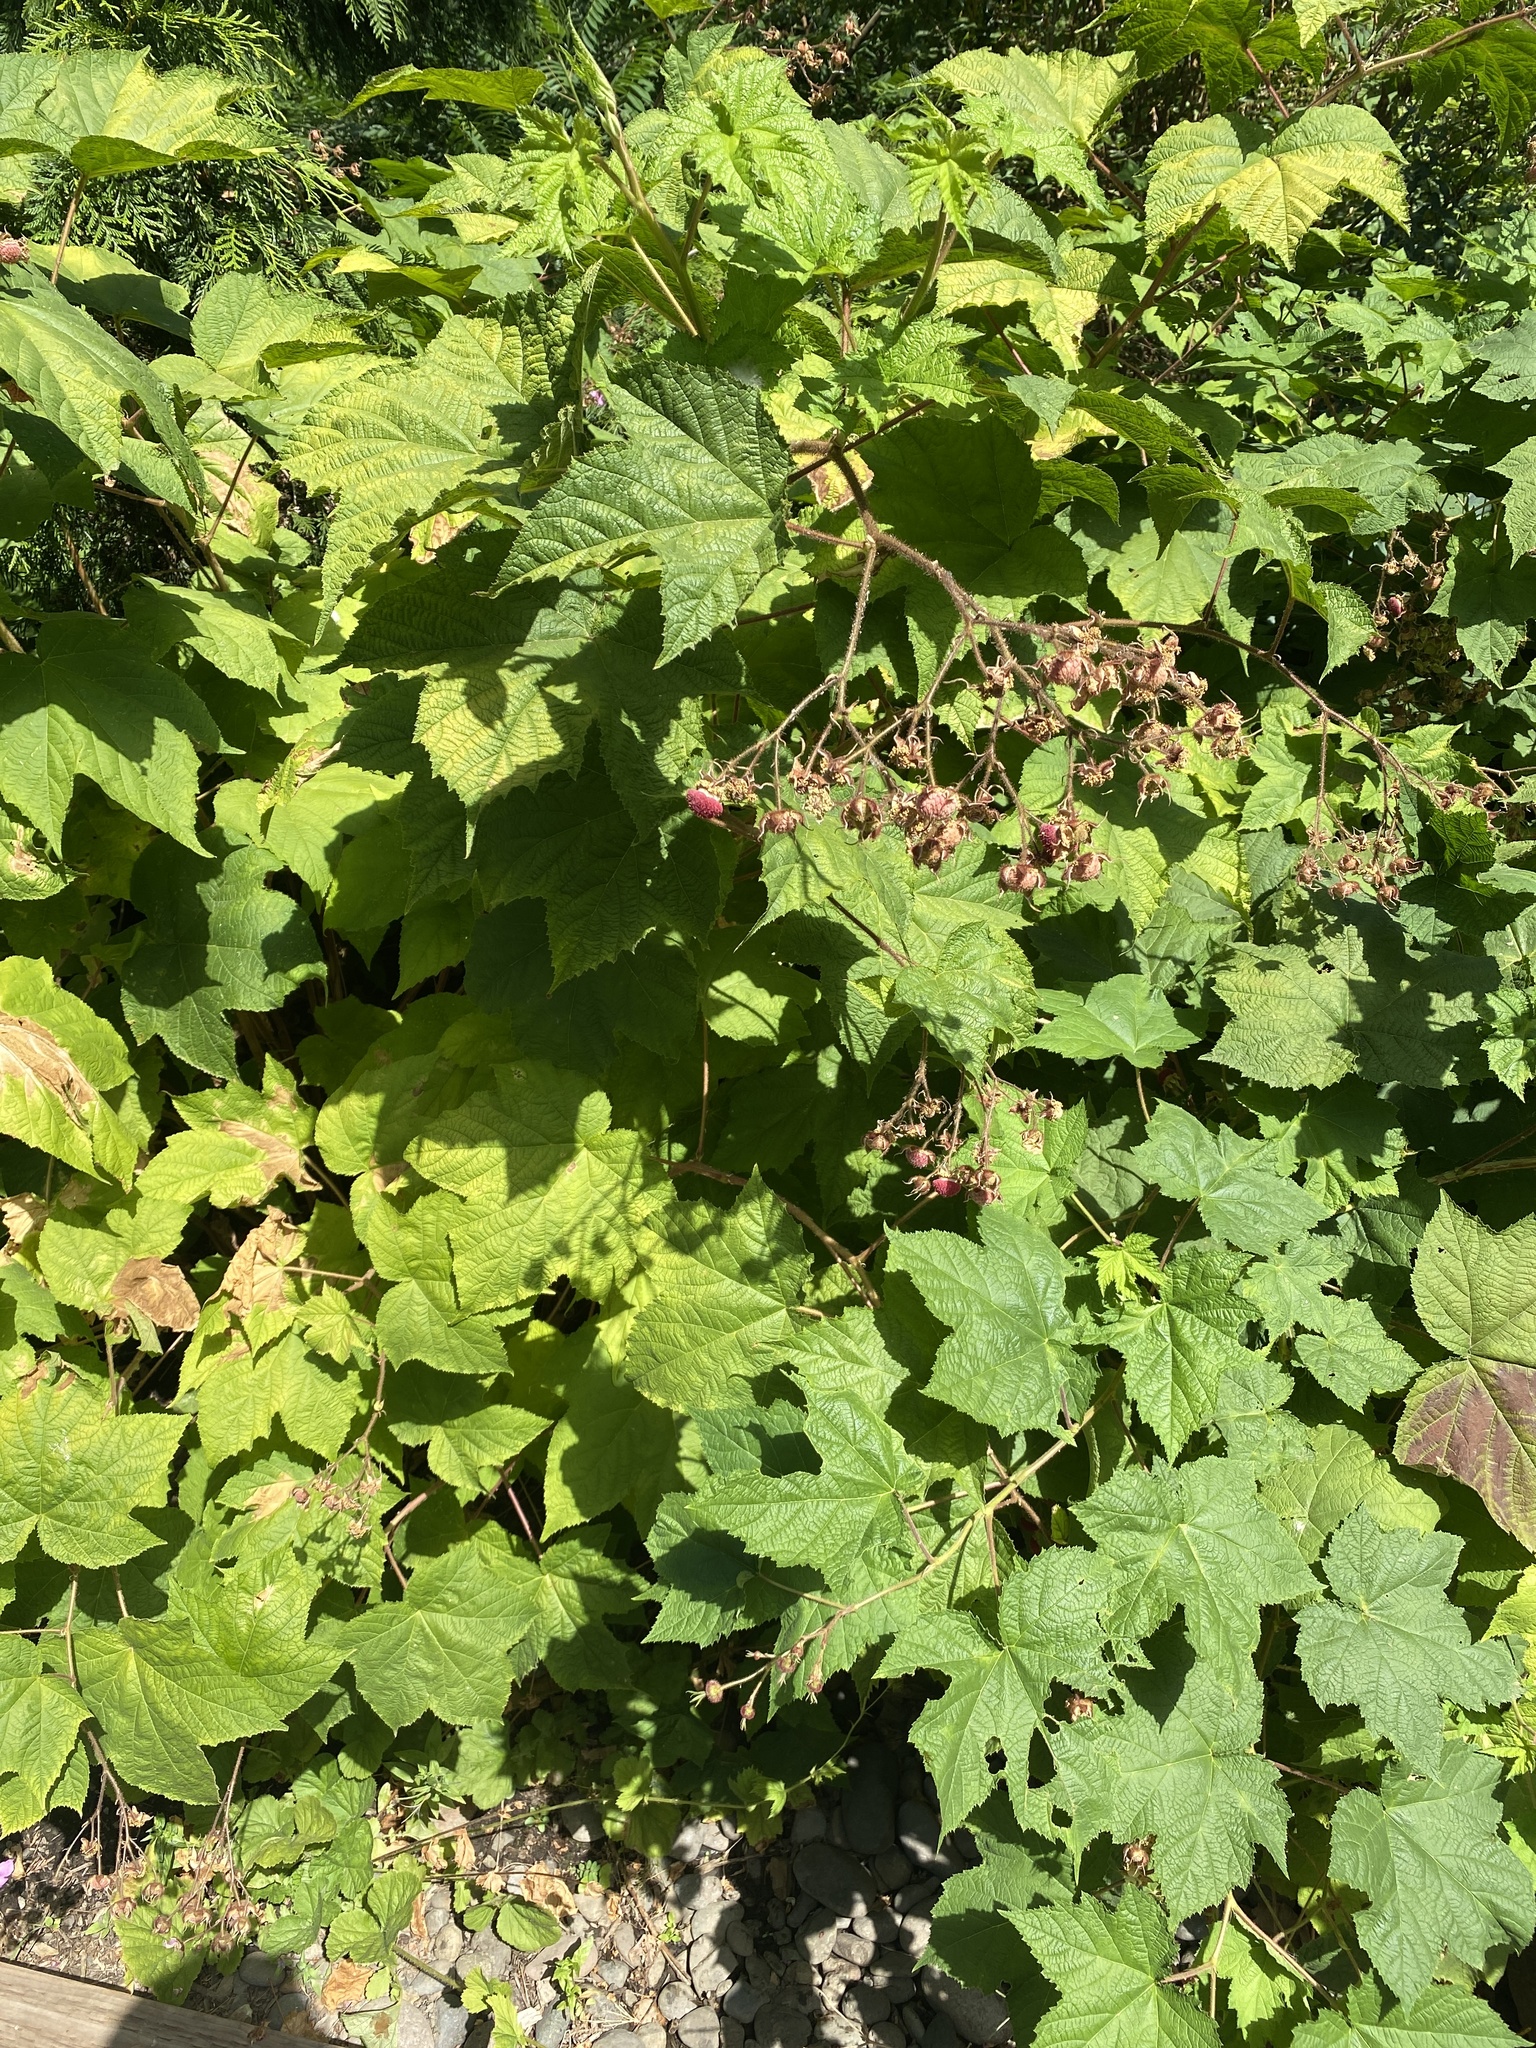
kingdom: Plantae
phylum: Tracheophyta
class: Magnoliopsida
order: Rosales
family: Rosaceae
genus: Rubus
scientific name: Rubus parviflorus
